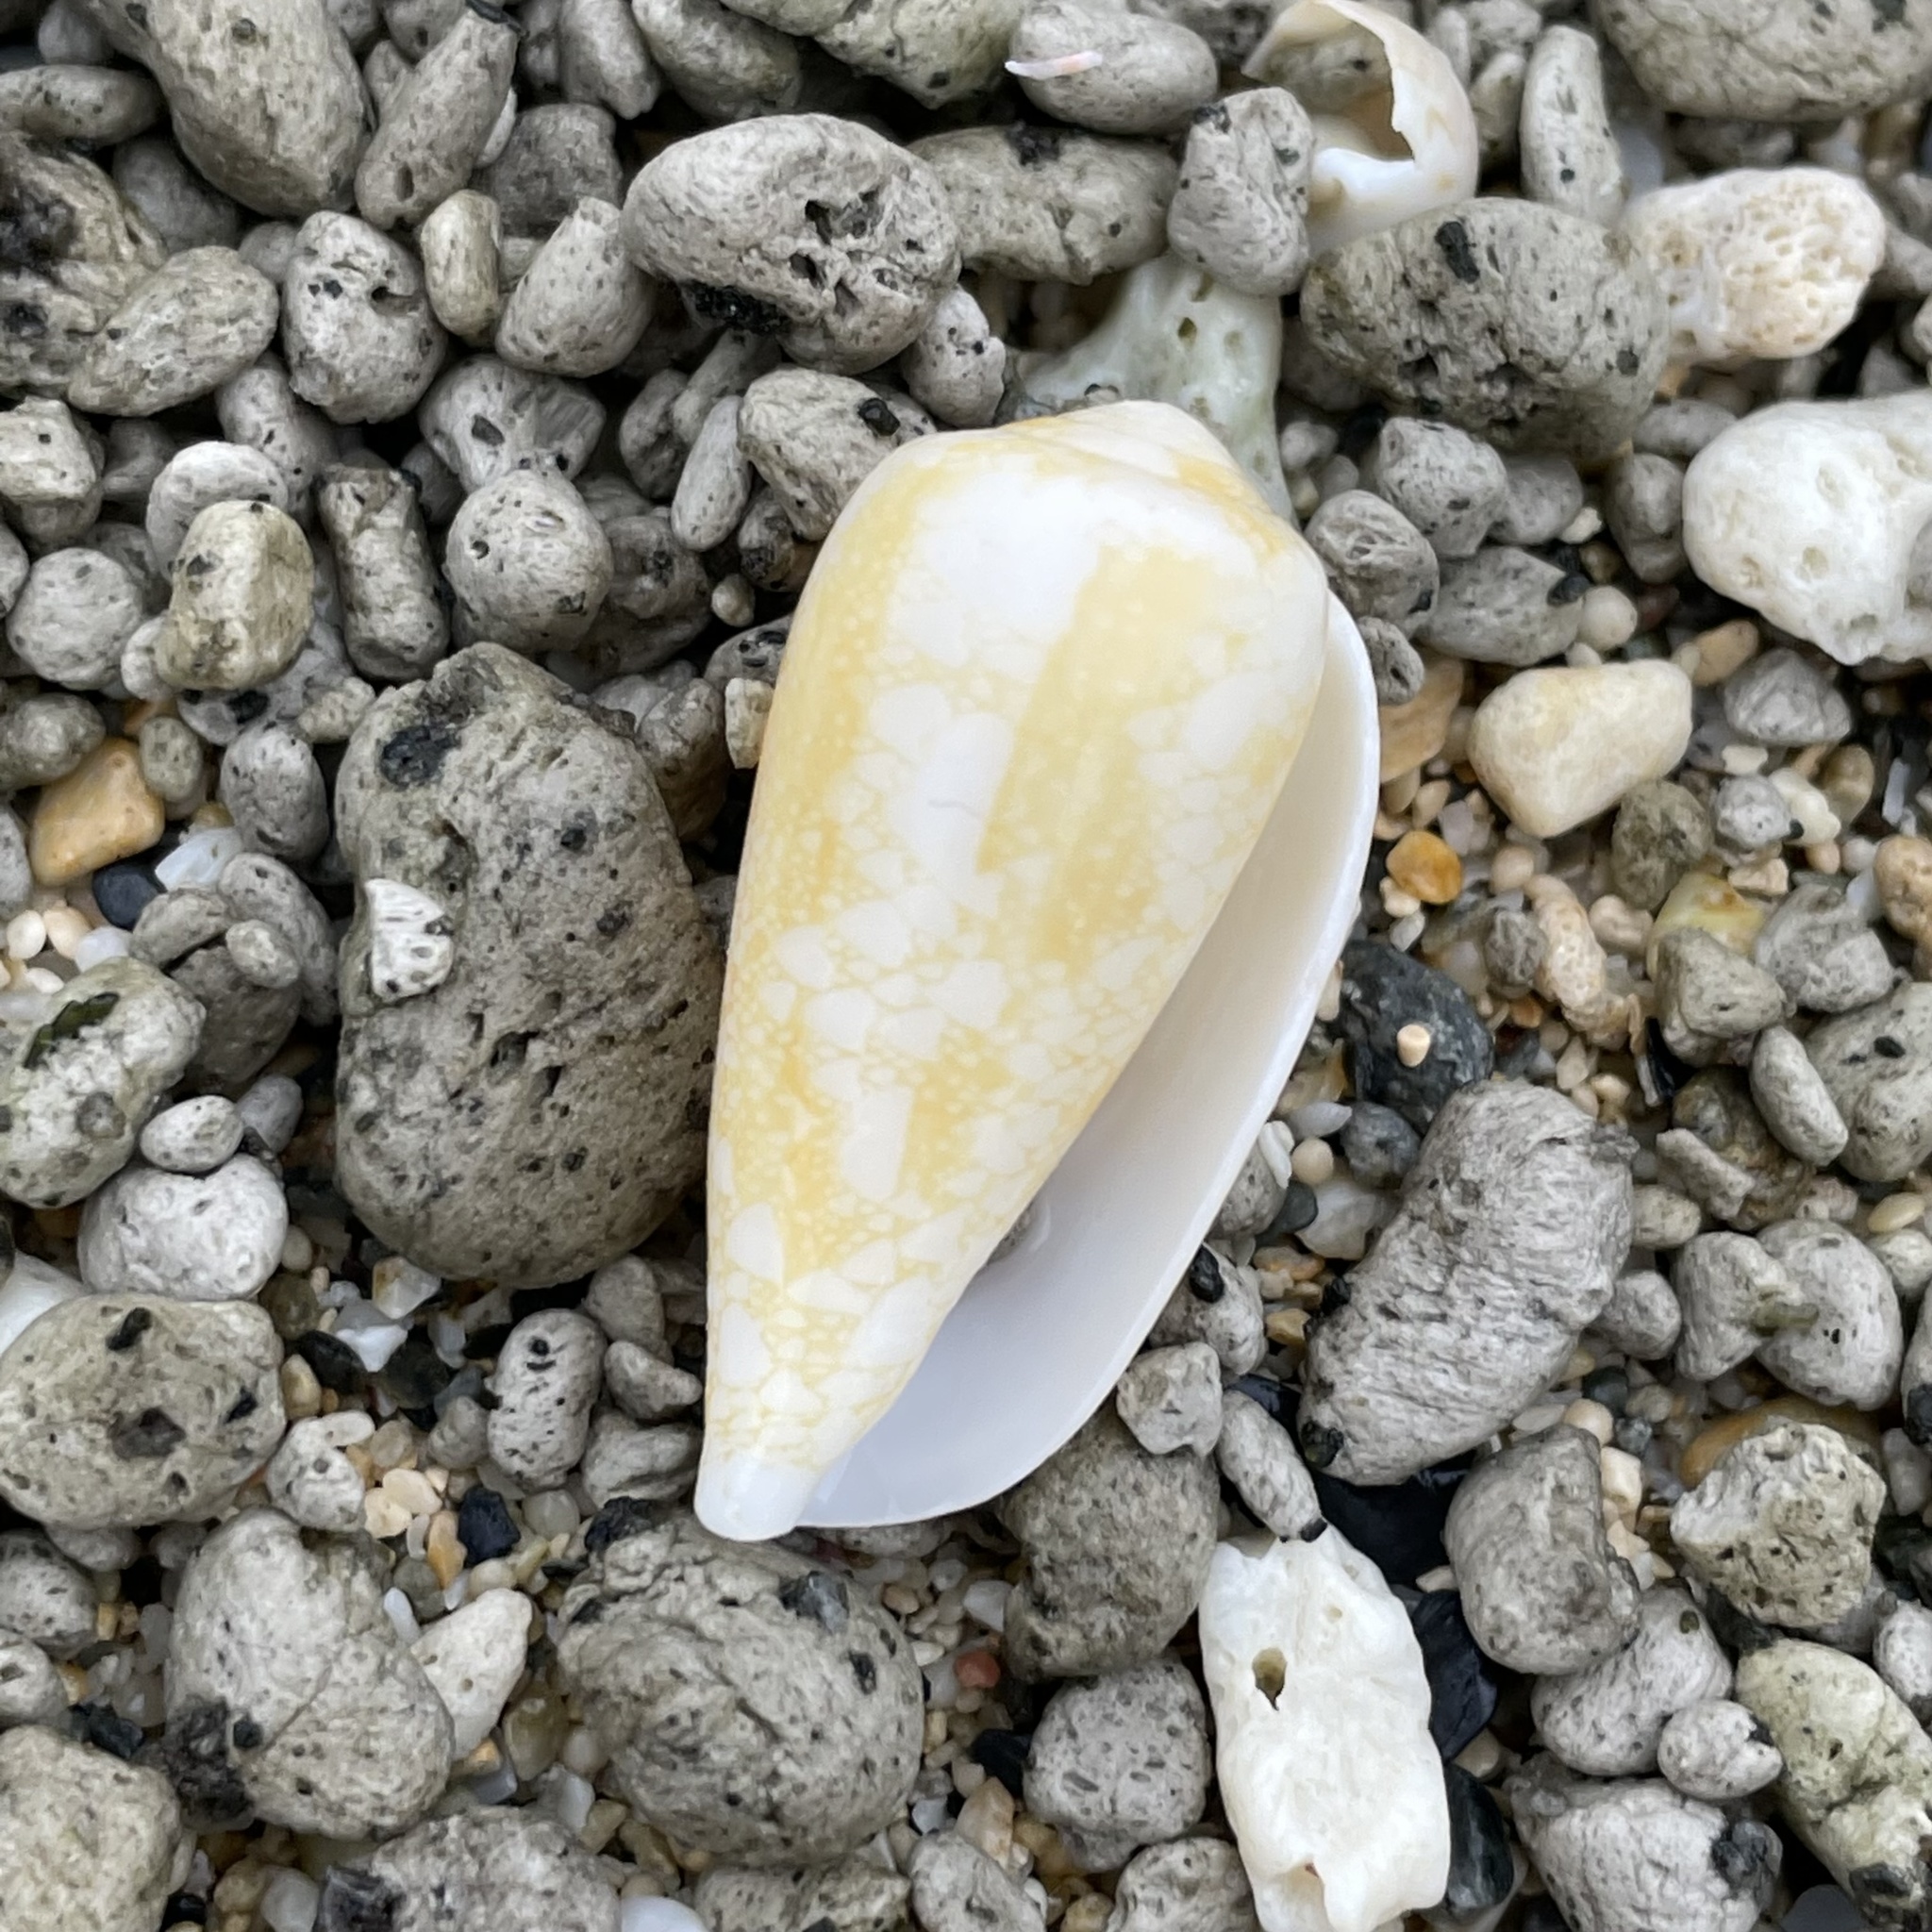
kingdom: Animalia
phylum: Mollusca
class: Gastropoda
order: Neogastropoda
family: Conidae
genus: Conus
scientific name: Conus omaria
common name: Omaria cone
